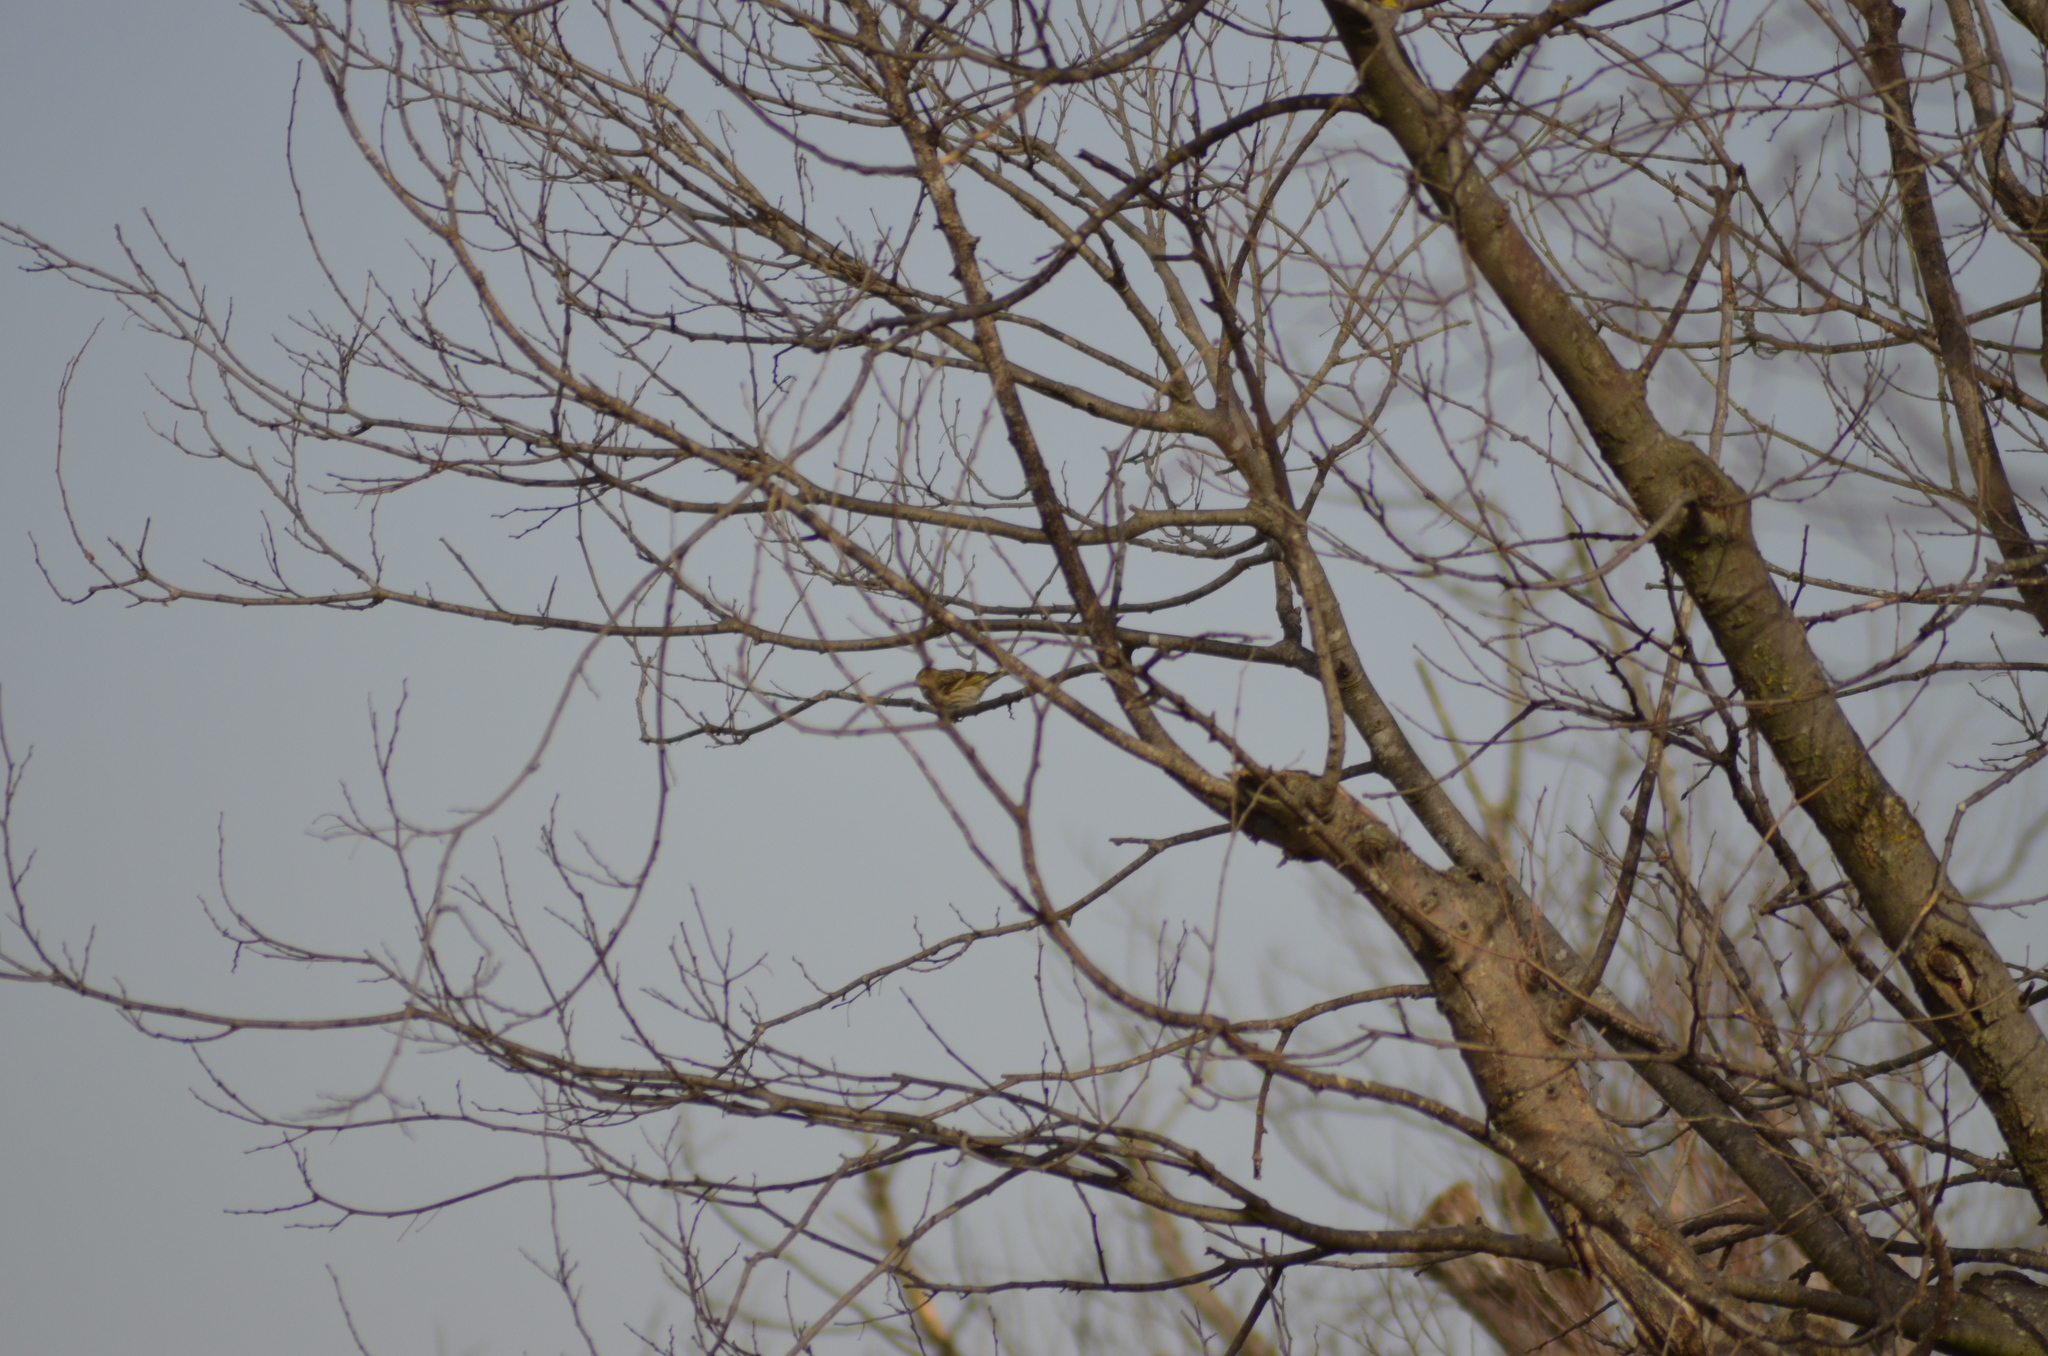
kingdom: Animalia
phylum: Chordata
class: Aves
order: Passeriformes
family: Fringillidae
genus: Serinus
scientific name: Serinus serinus
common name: European serin
